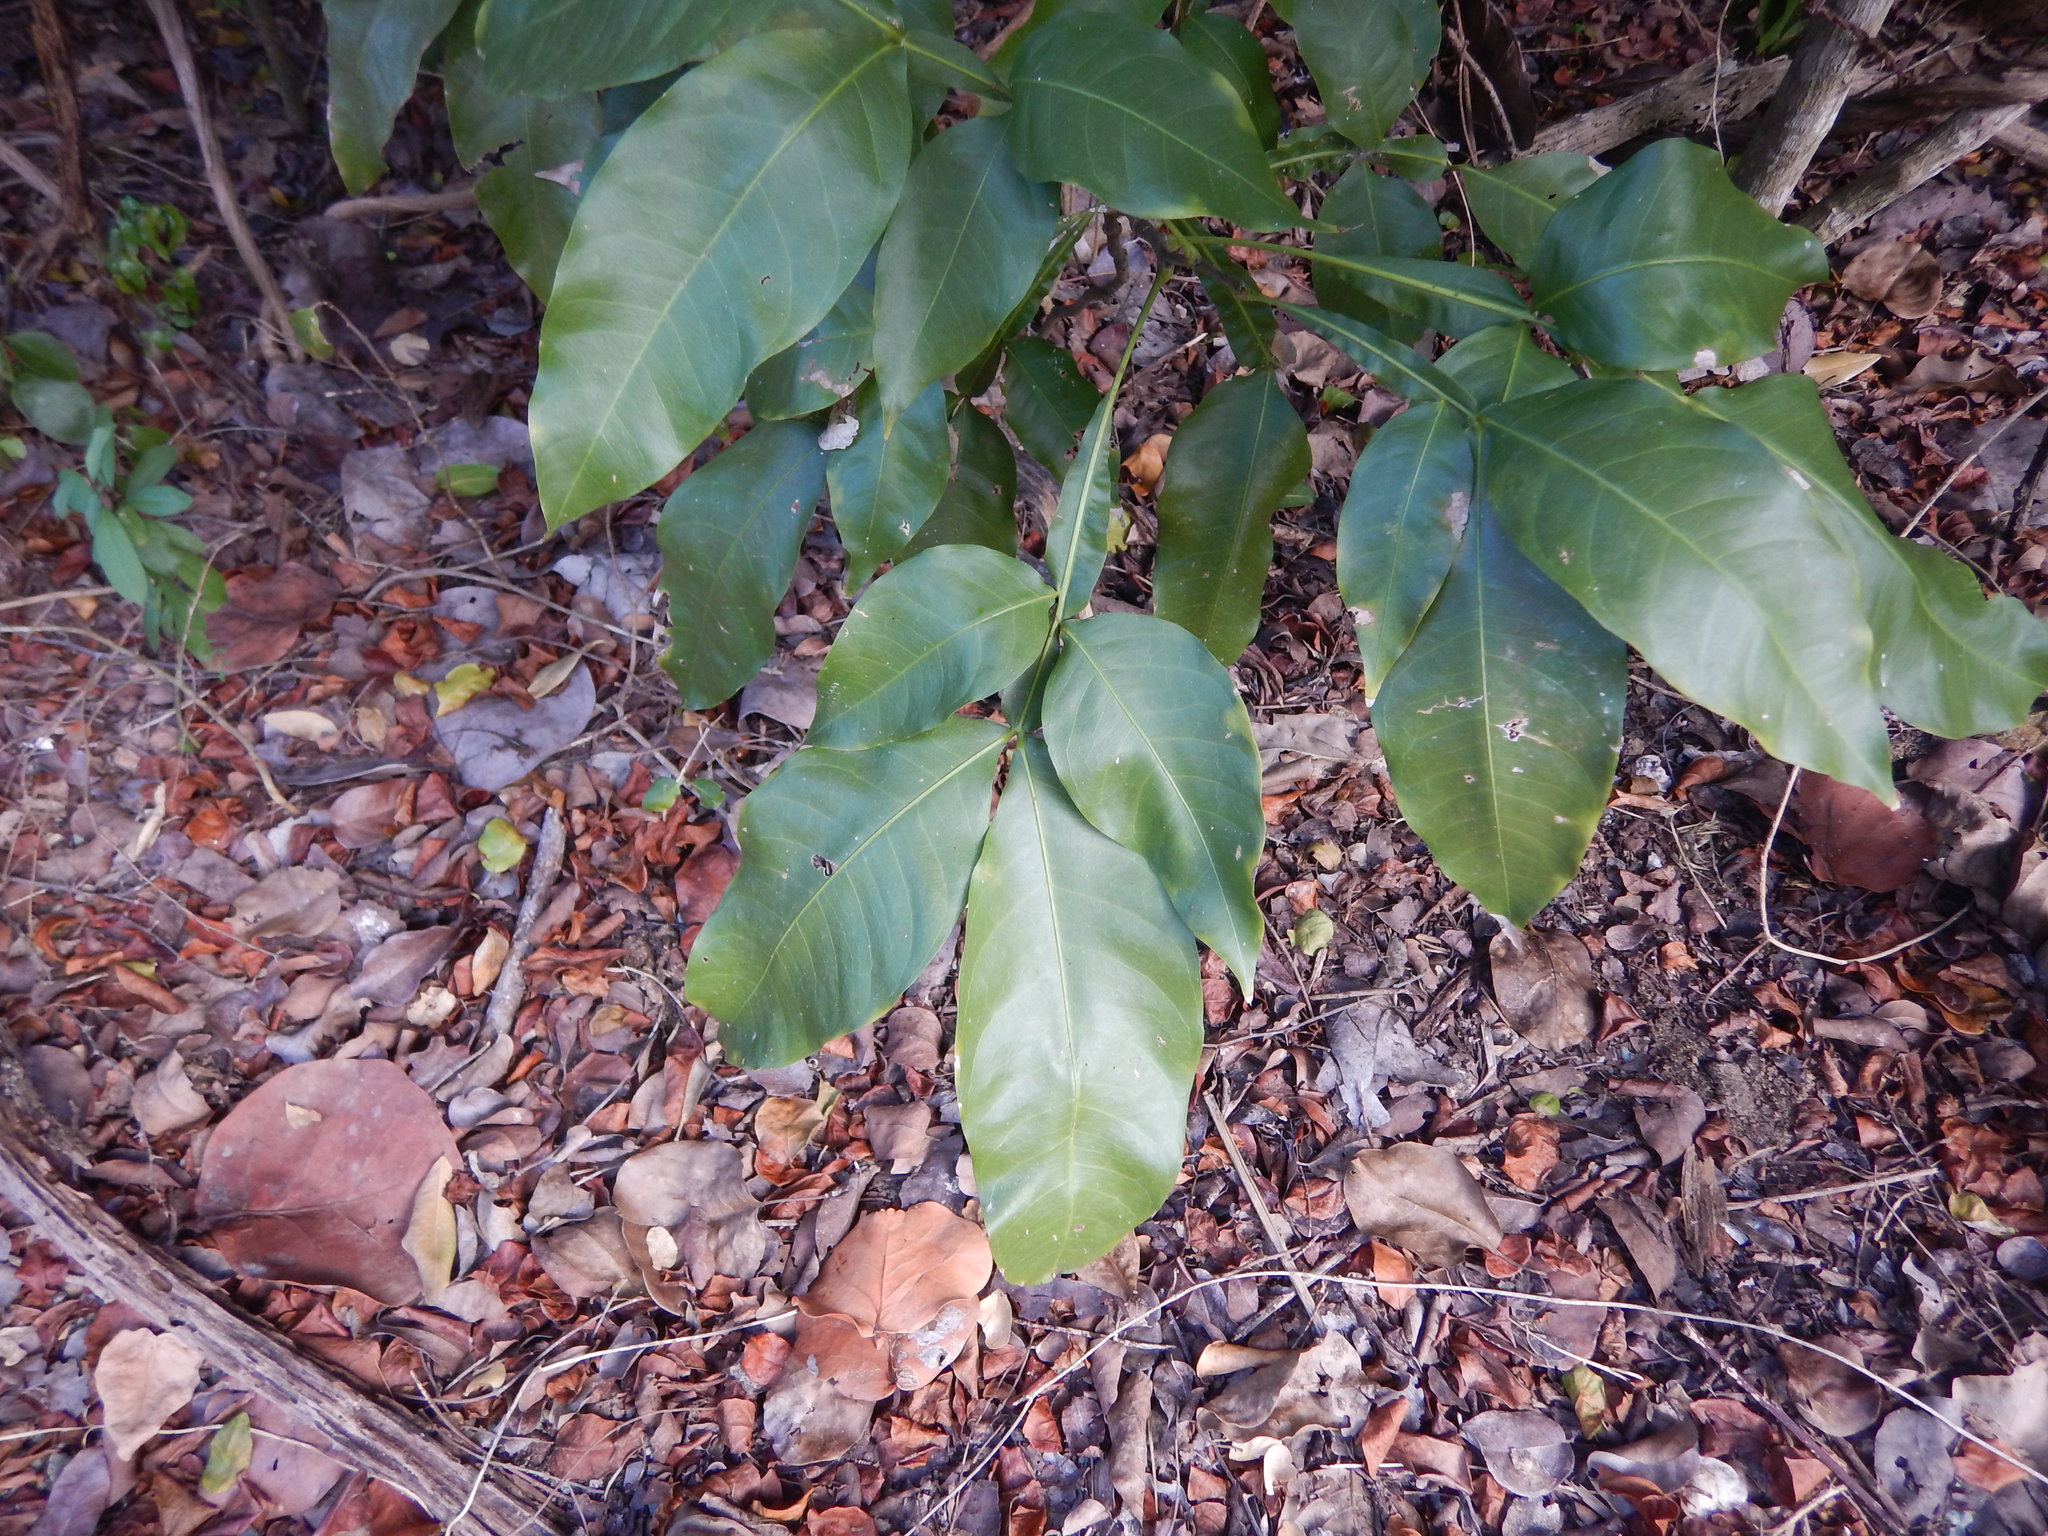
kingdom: Plantae
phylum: Tracheophyta
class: Magnoliopsida
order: Sapindales
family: Sapindaceae
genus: Melicoccus
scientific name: Melicoccus bijugatus
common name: Spanish lime
